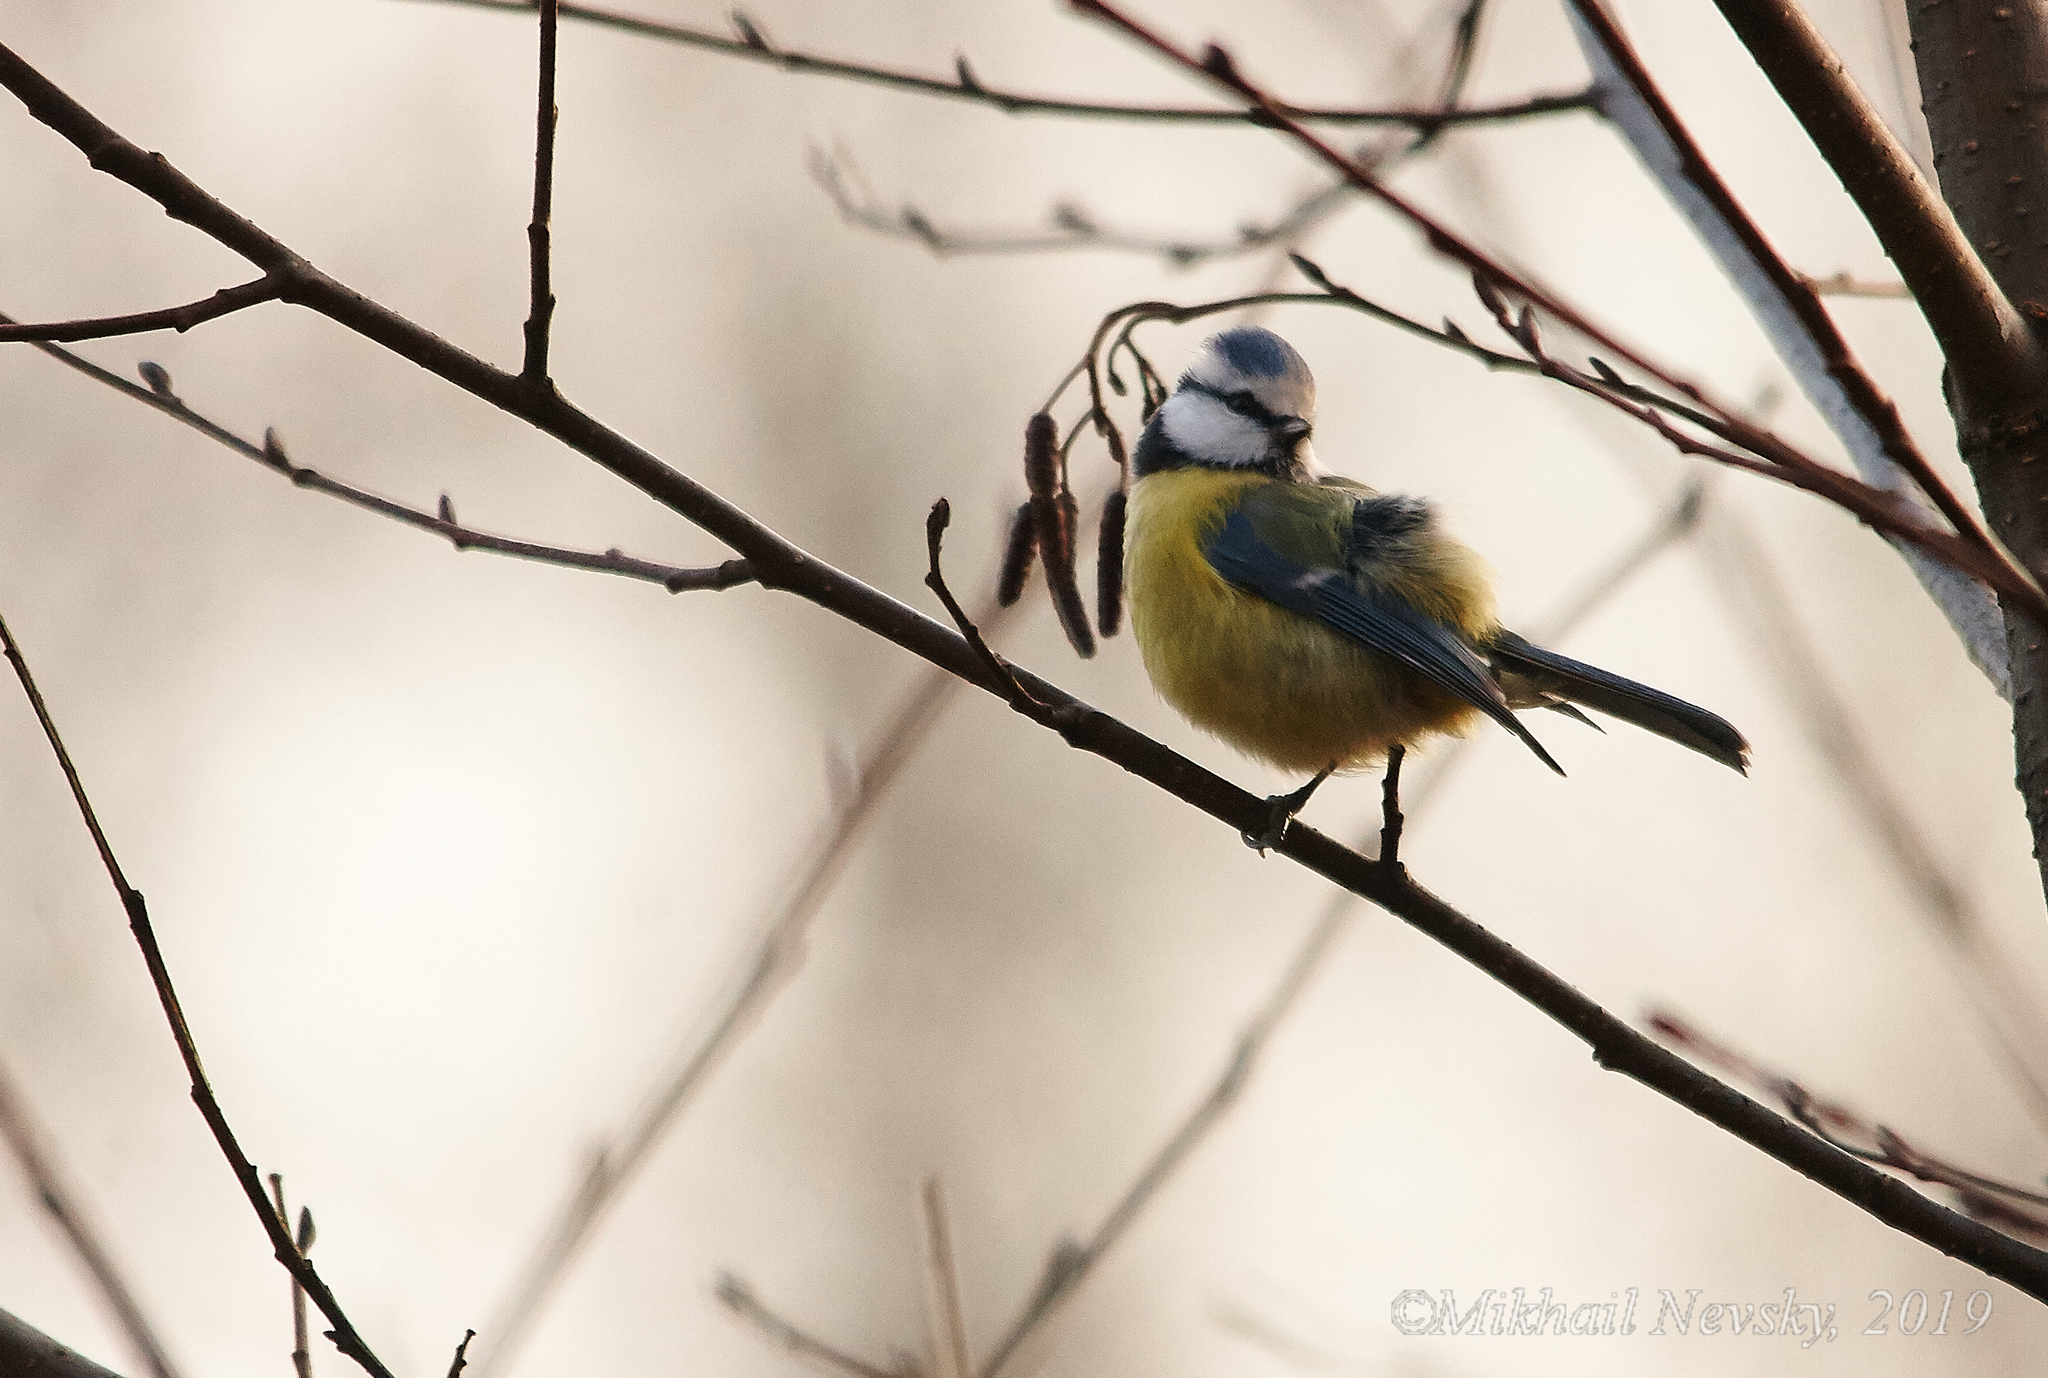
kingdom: Animalia
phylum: Chordata
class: Aves
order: Passeriformes
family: Paridae
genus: Cyanistes
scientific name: Cyanistes caeruleus
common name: Eurasian blue tit
